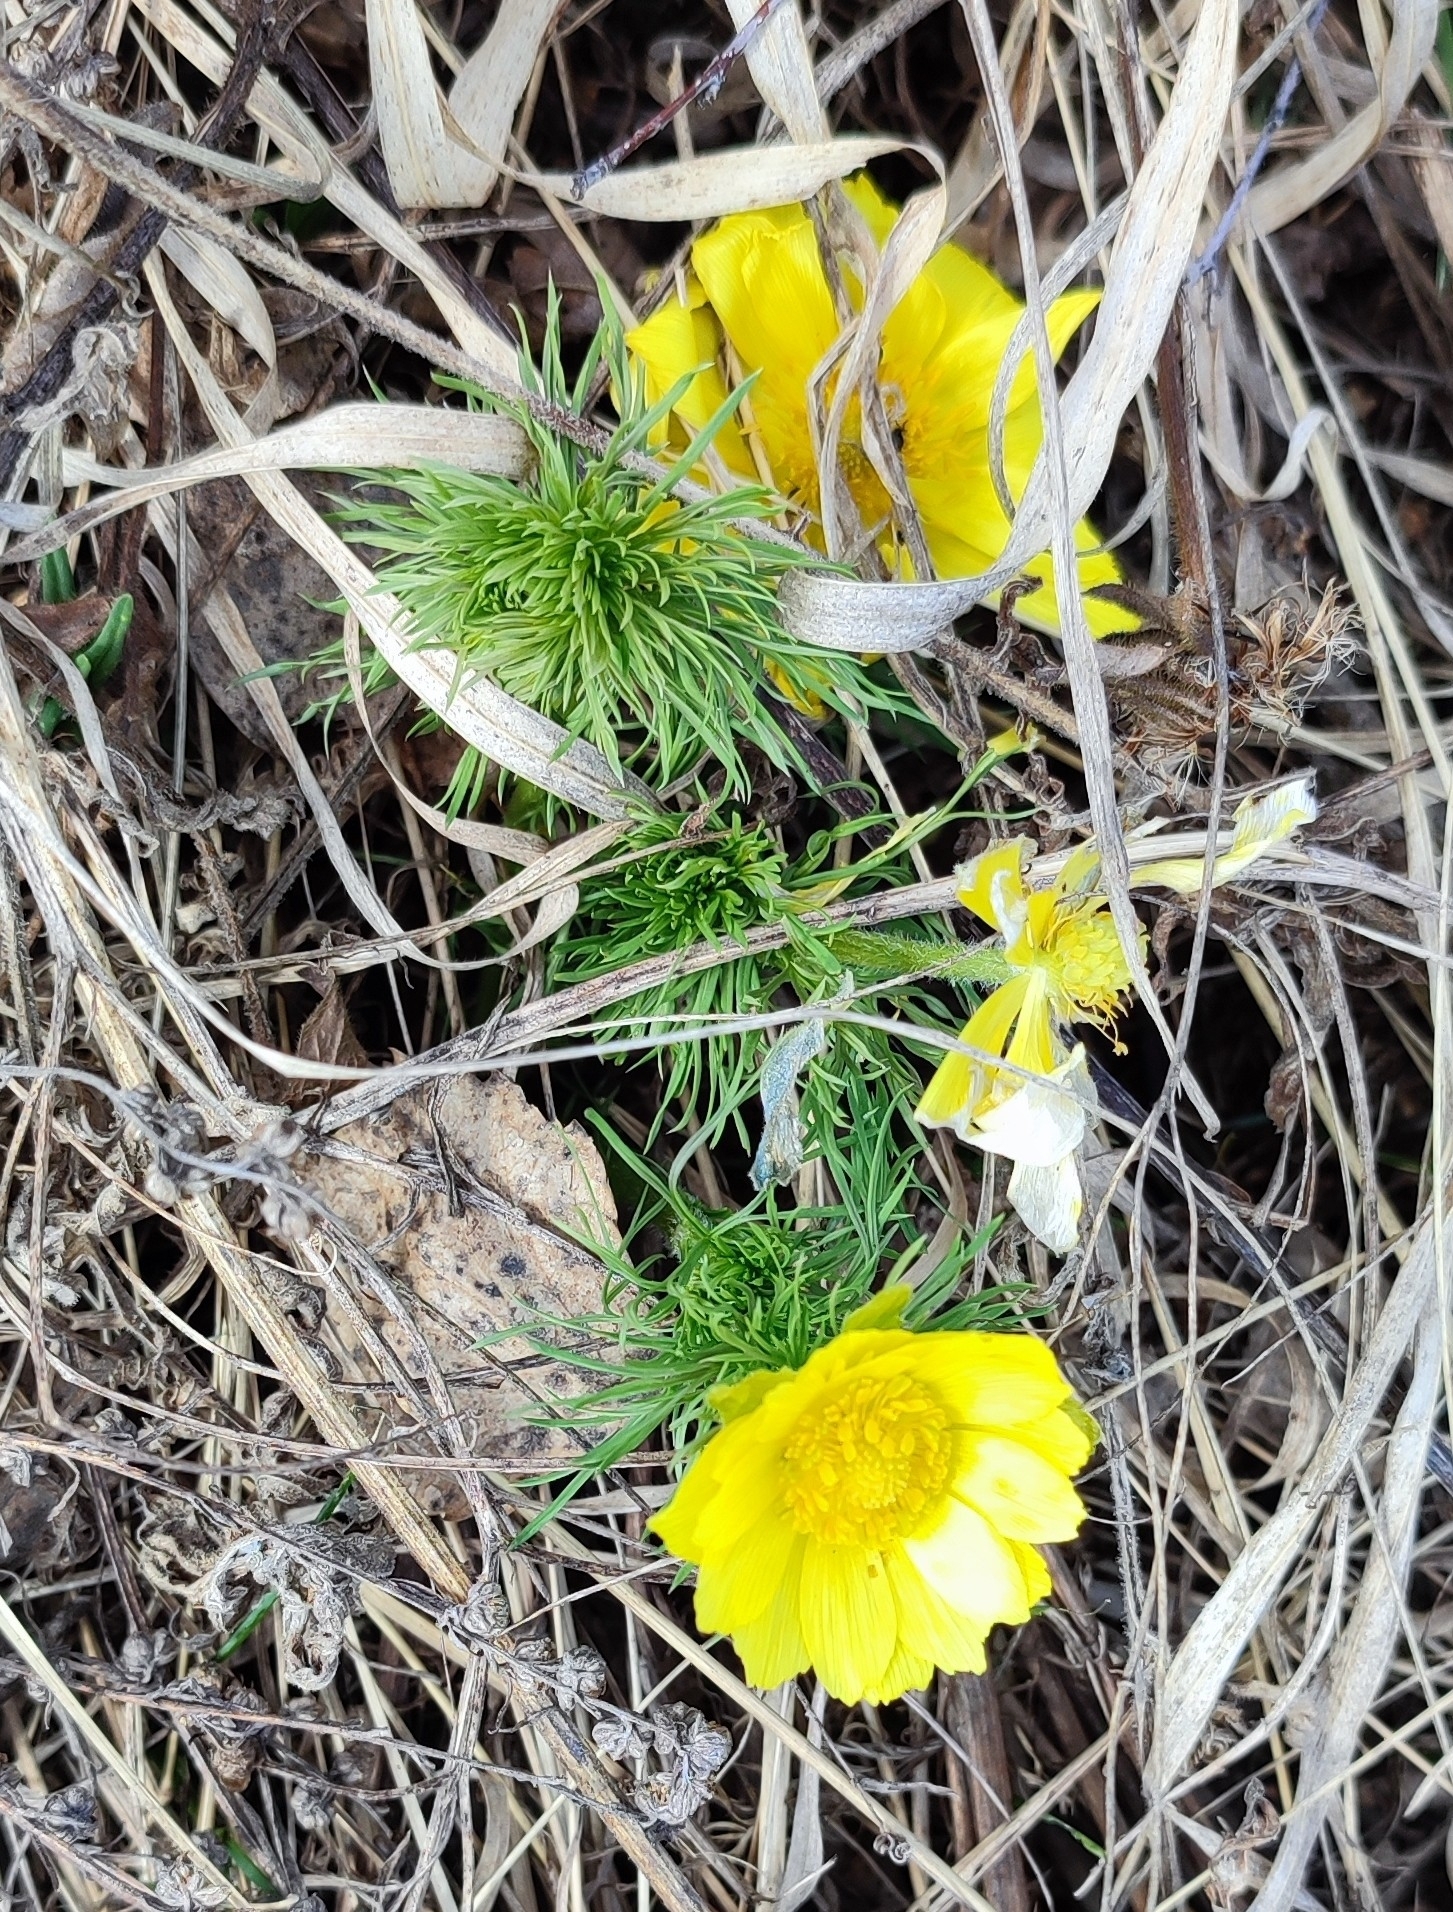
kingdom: Plantae
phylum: Tracheophyta
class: Magnoliopsida
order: Ranunculales
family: Ranunculaceae
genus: Adonis
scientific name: Adonis vernalis
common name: Yellow pheasants-eye
